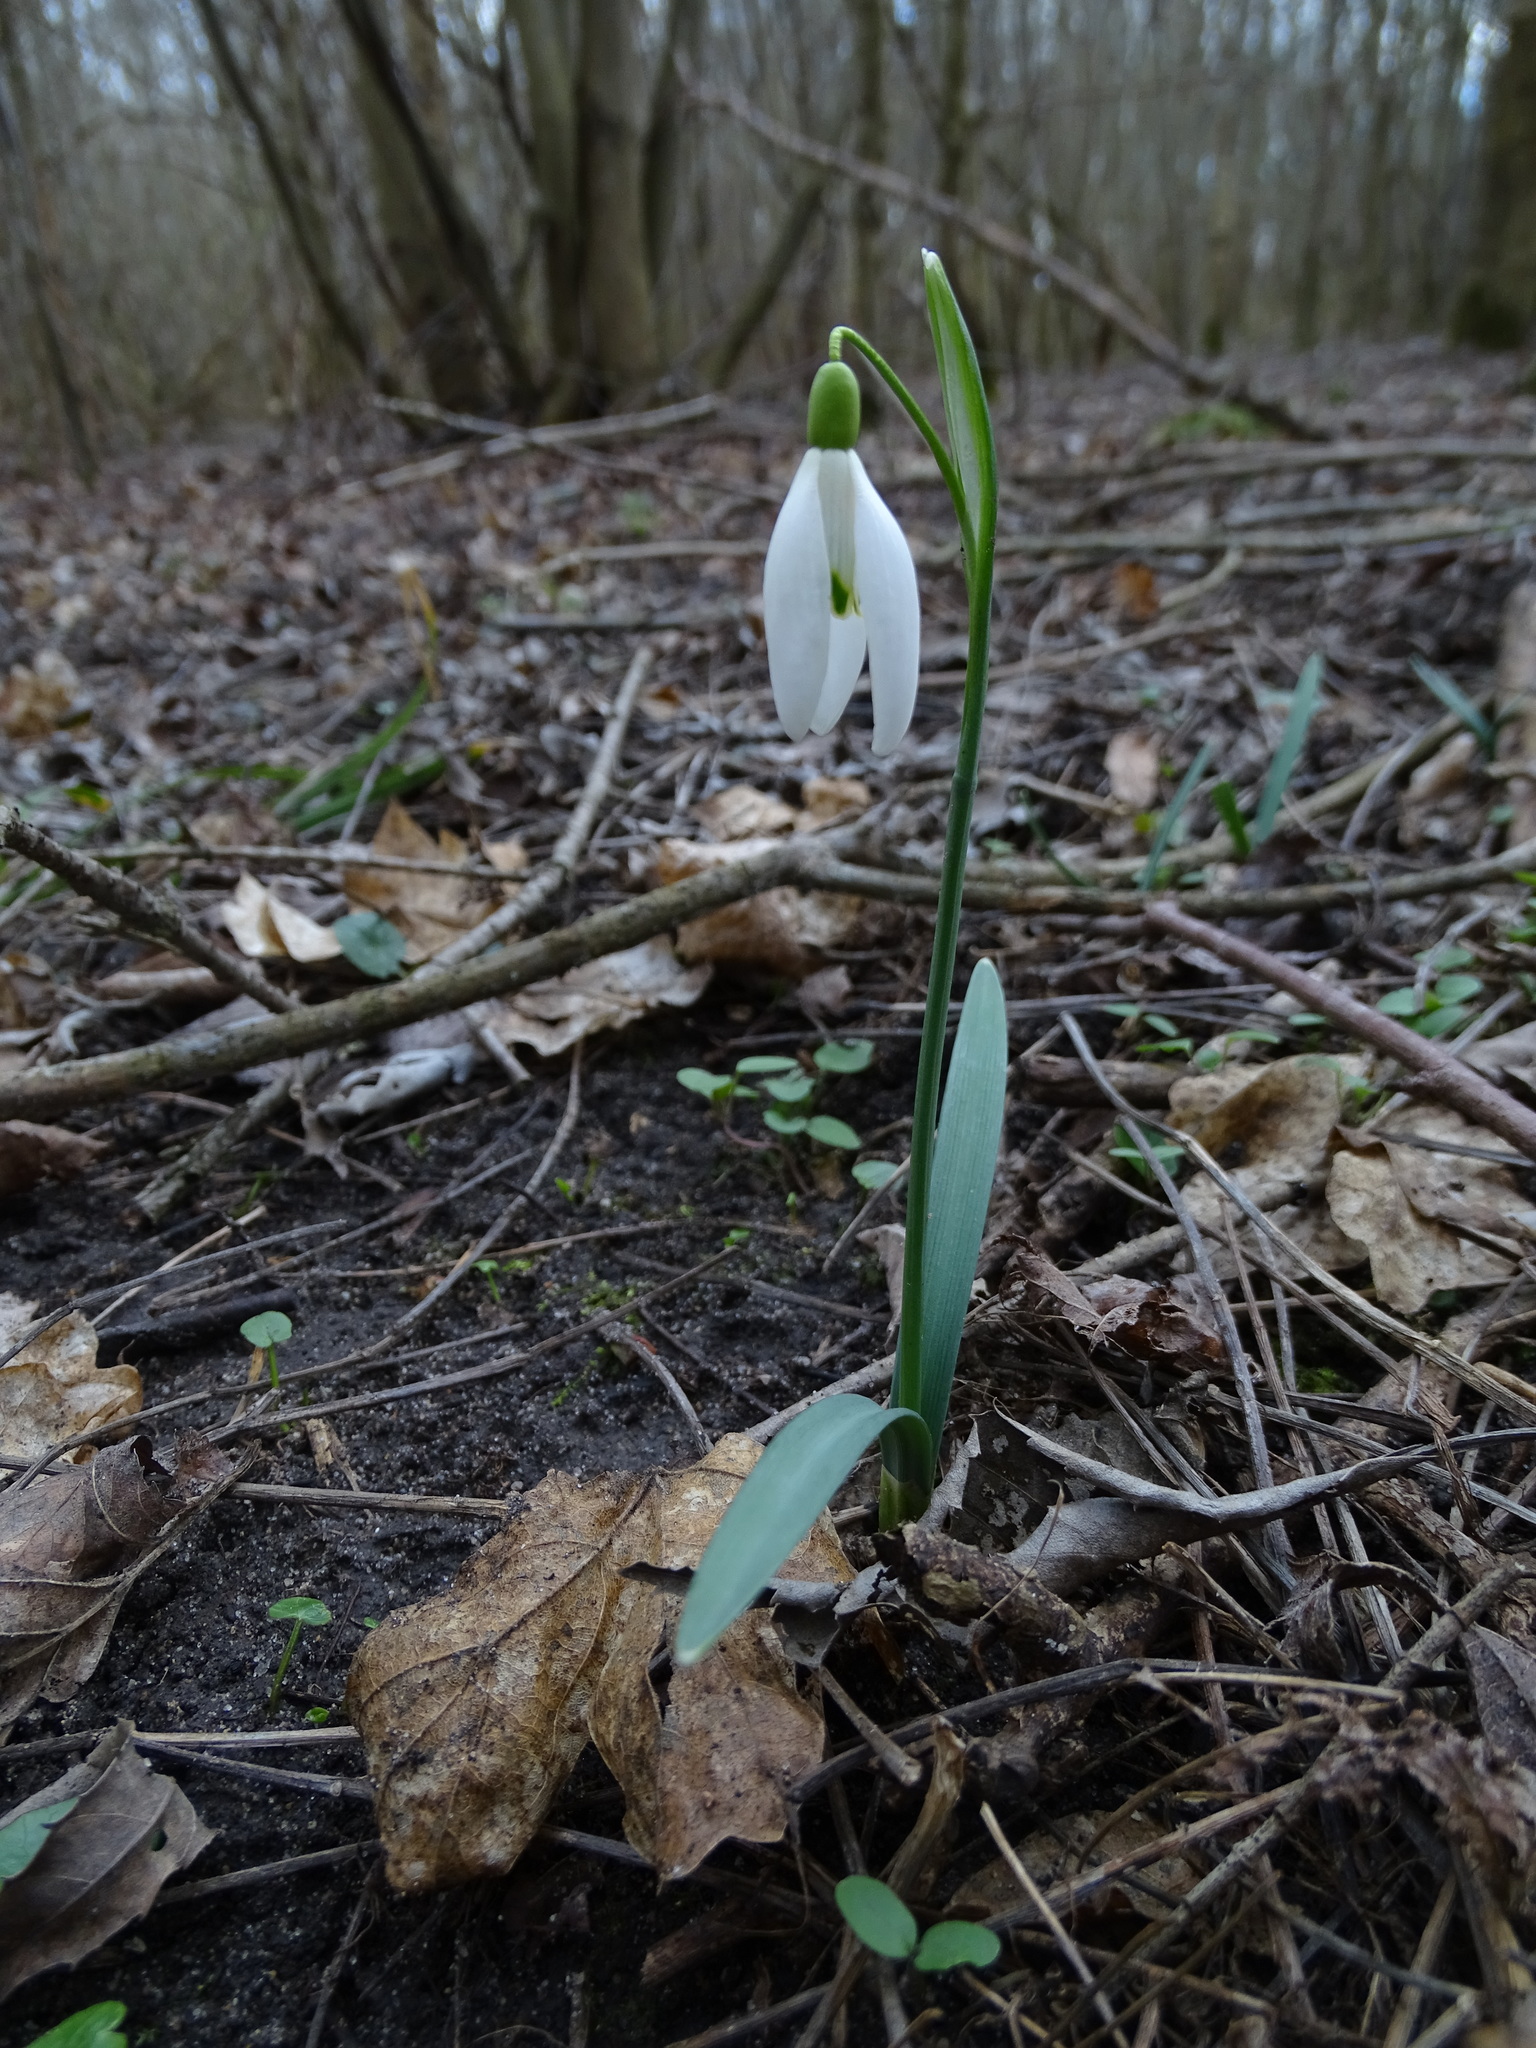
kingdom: Plantae
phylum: Tracheophyta
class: Liliopsida
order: Asparagales
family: Amaryllidaceae
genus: Galanthus
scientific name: Galanthus nivalis
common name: Snowdrop
